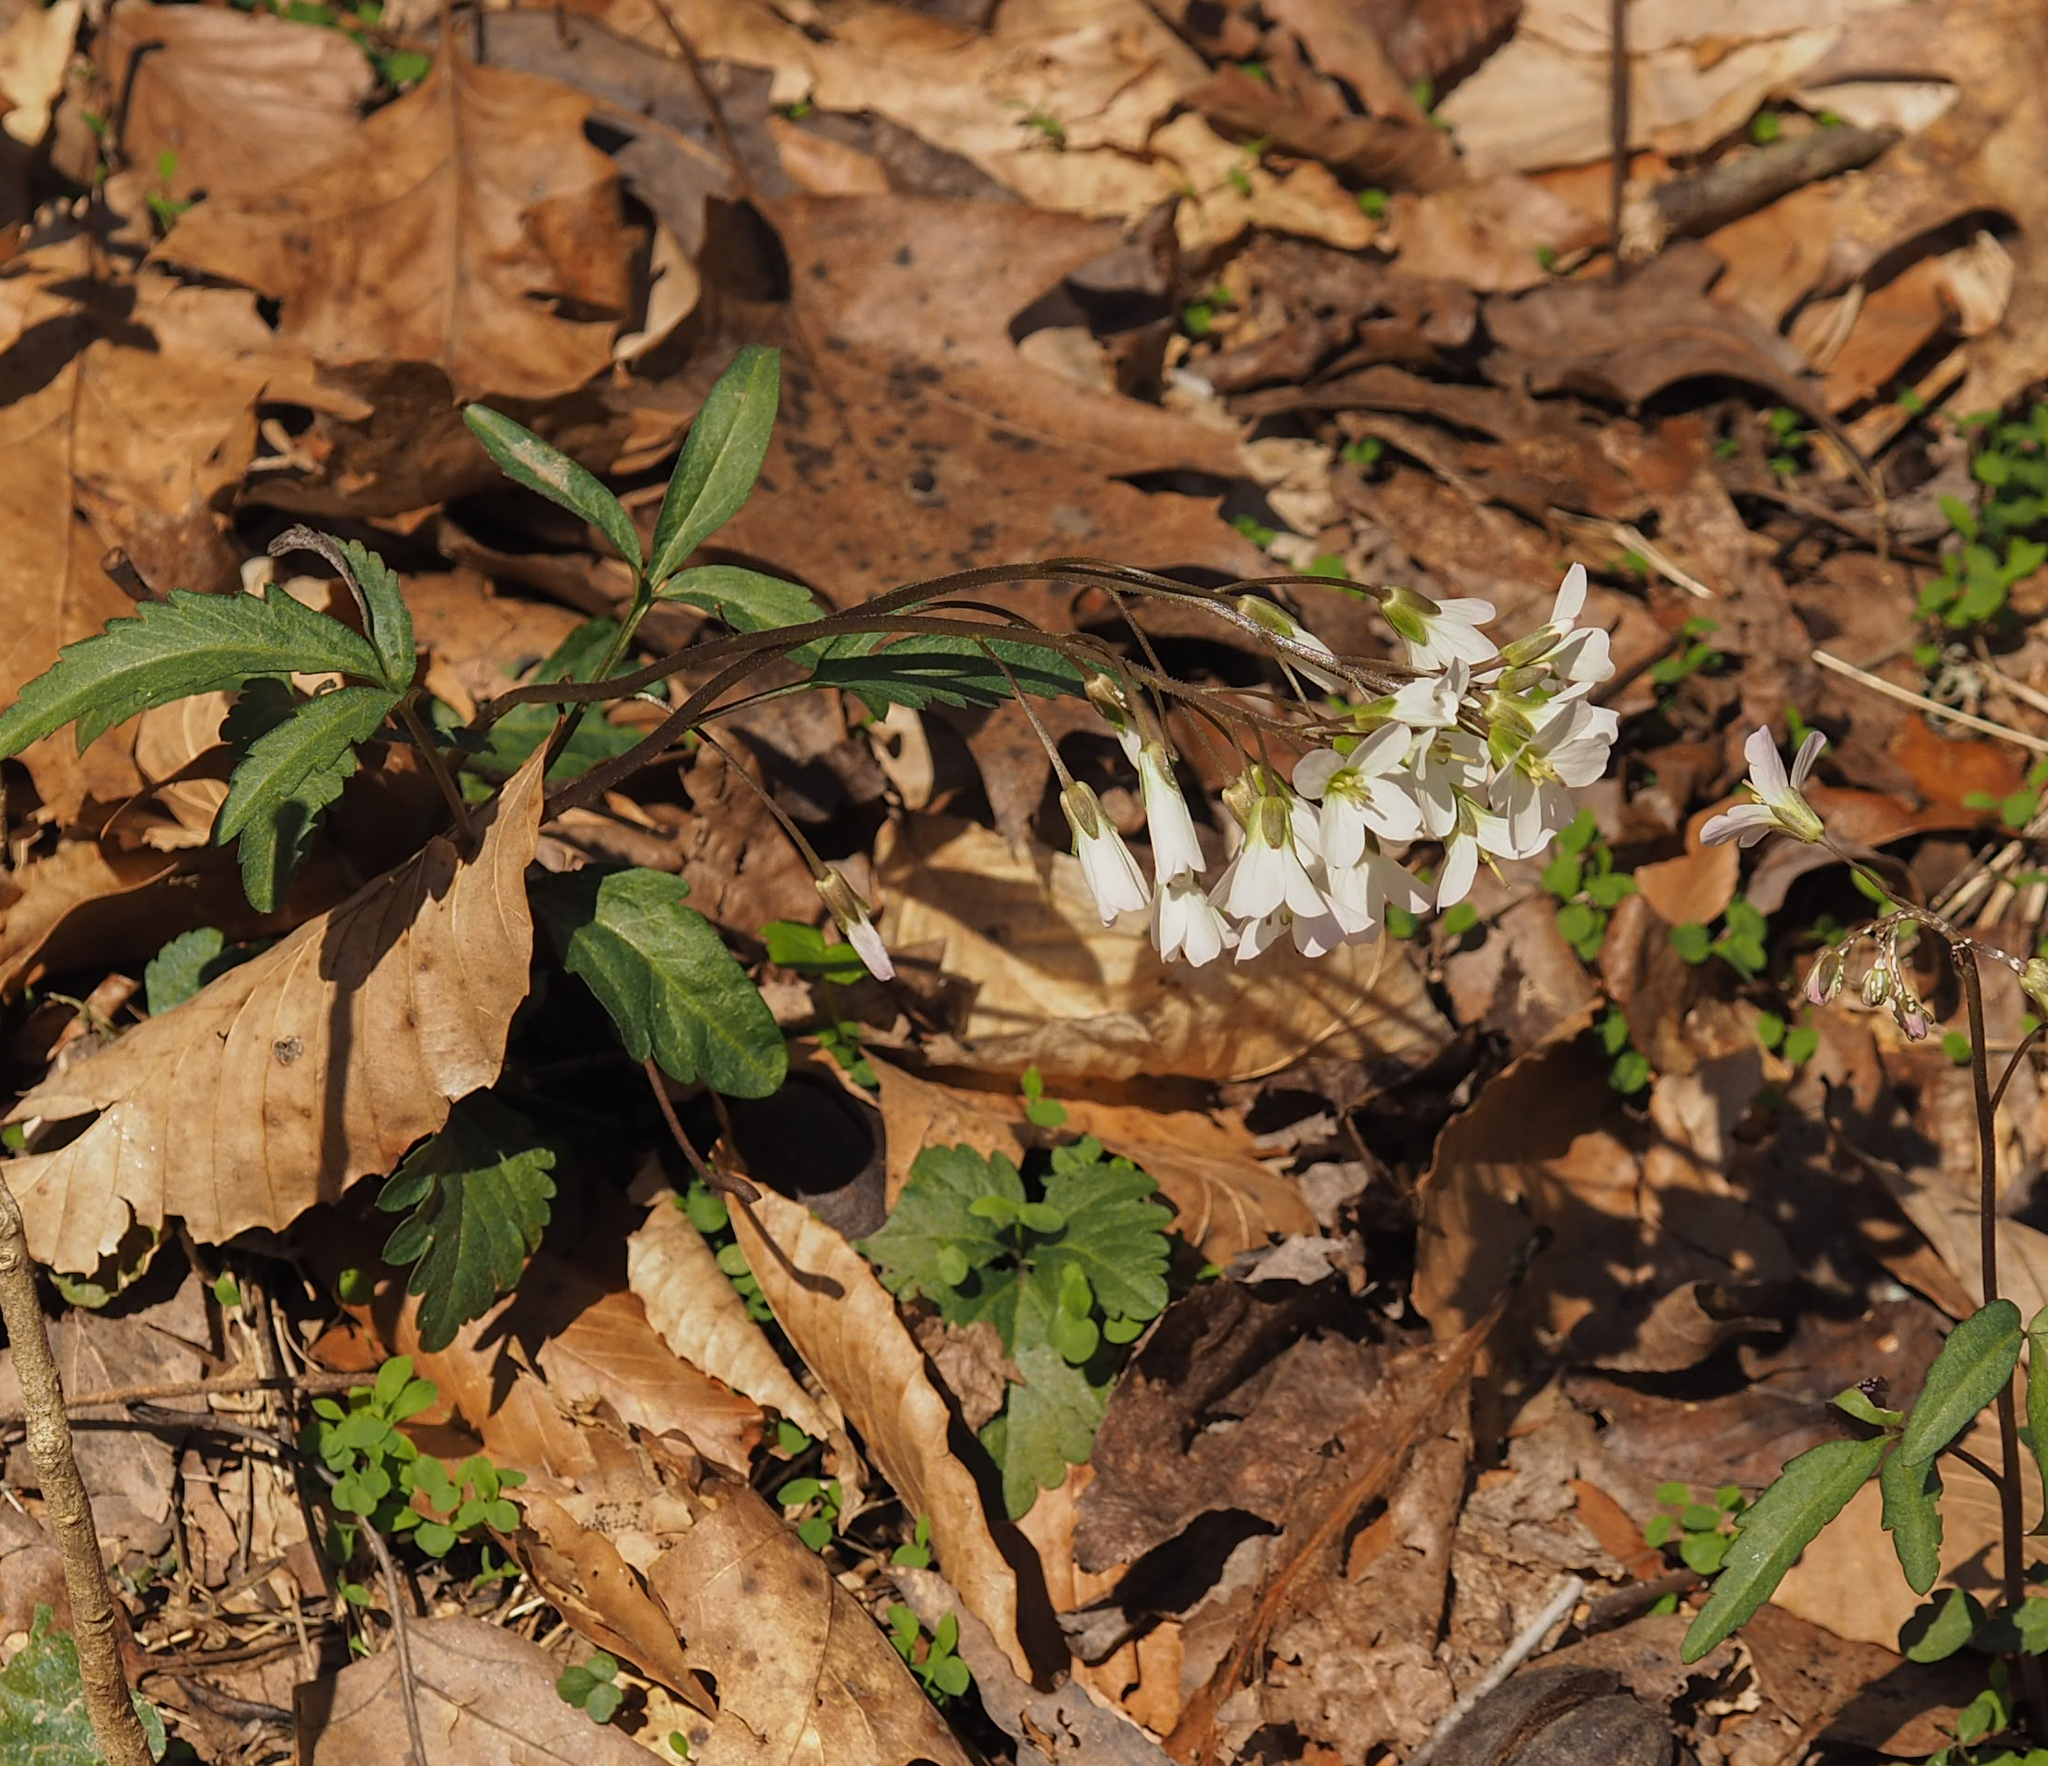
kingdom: Plantae
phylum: Tracheophyta
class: Magnoliopsida
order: Brassicales
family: Brassicaceae
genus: Cardamine
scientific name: Cardamine concatenata
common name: Cut-leaf toothcup
